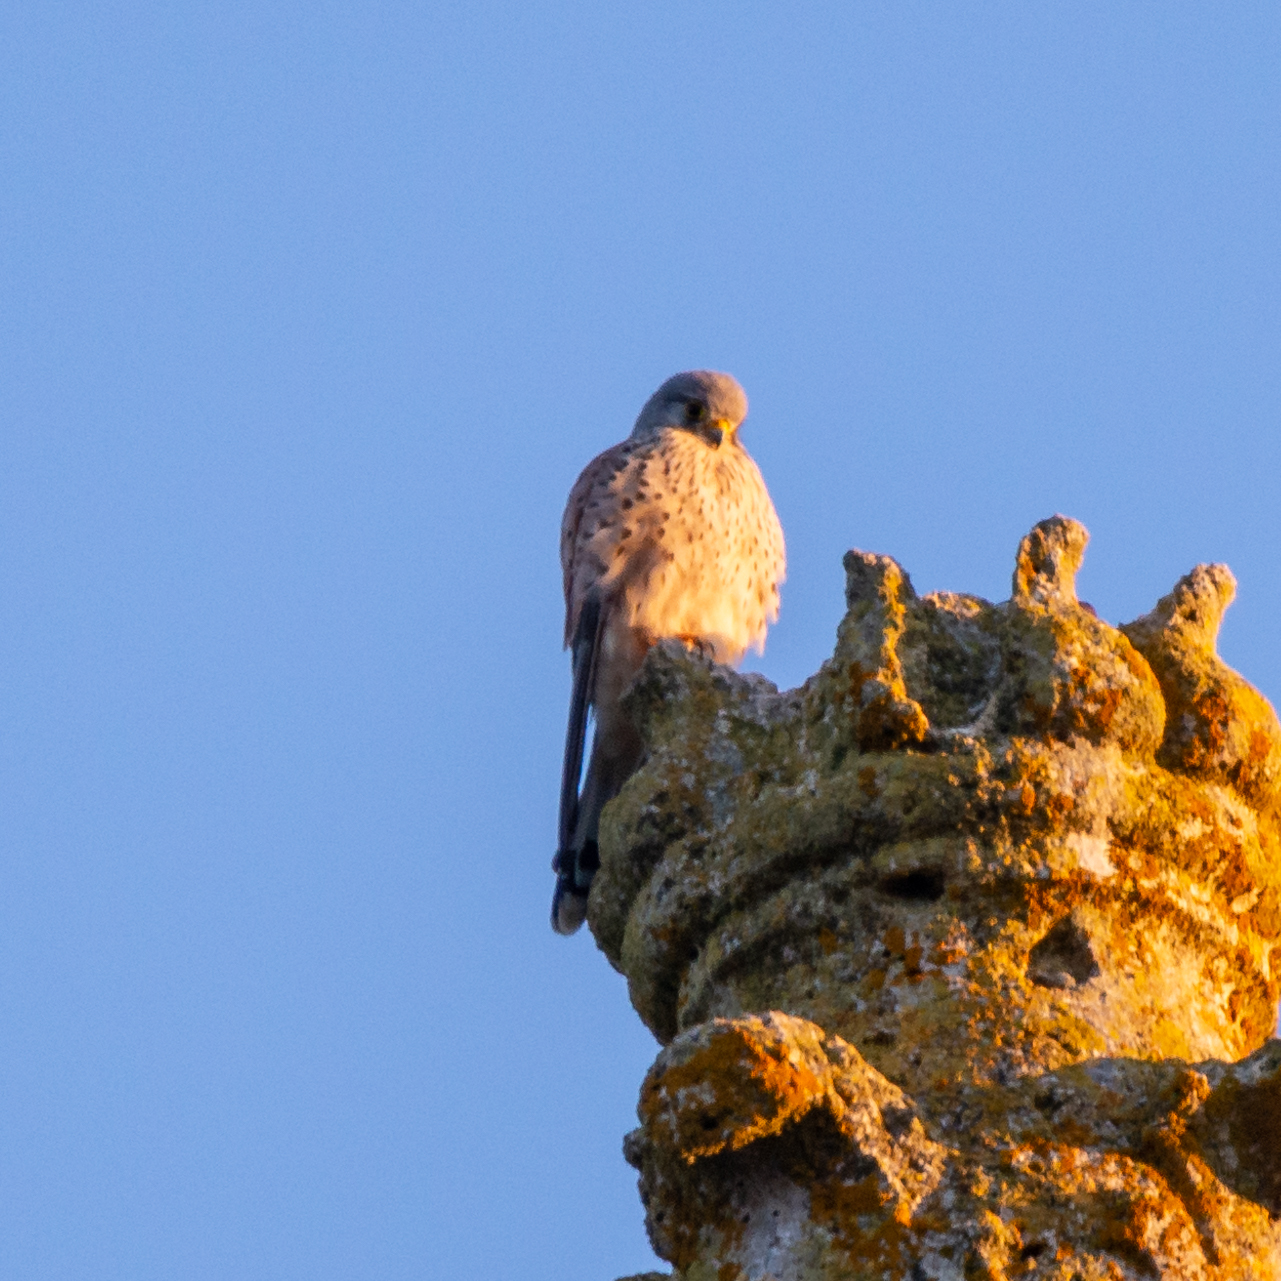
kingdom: Animalia
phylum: Chordata
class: Aves
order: Falconiformes
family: Falconidae
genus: Falco
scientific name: Falco tinnunculus
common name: Common kestrel
